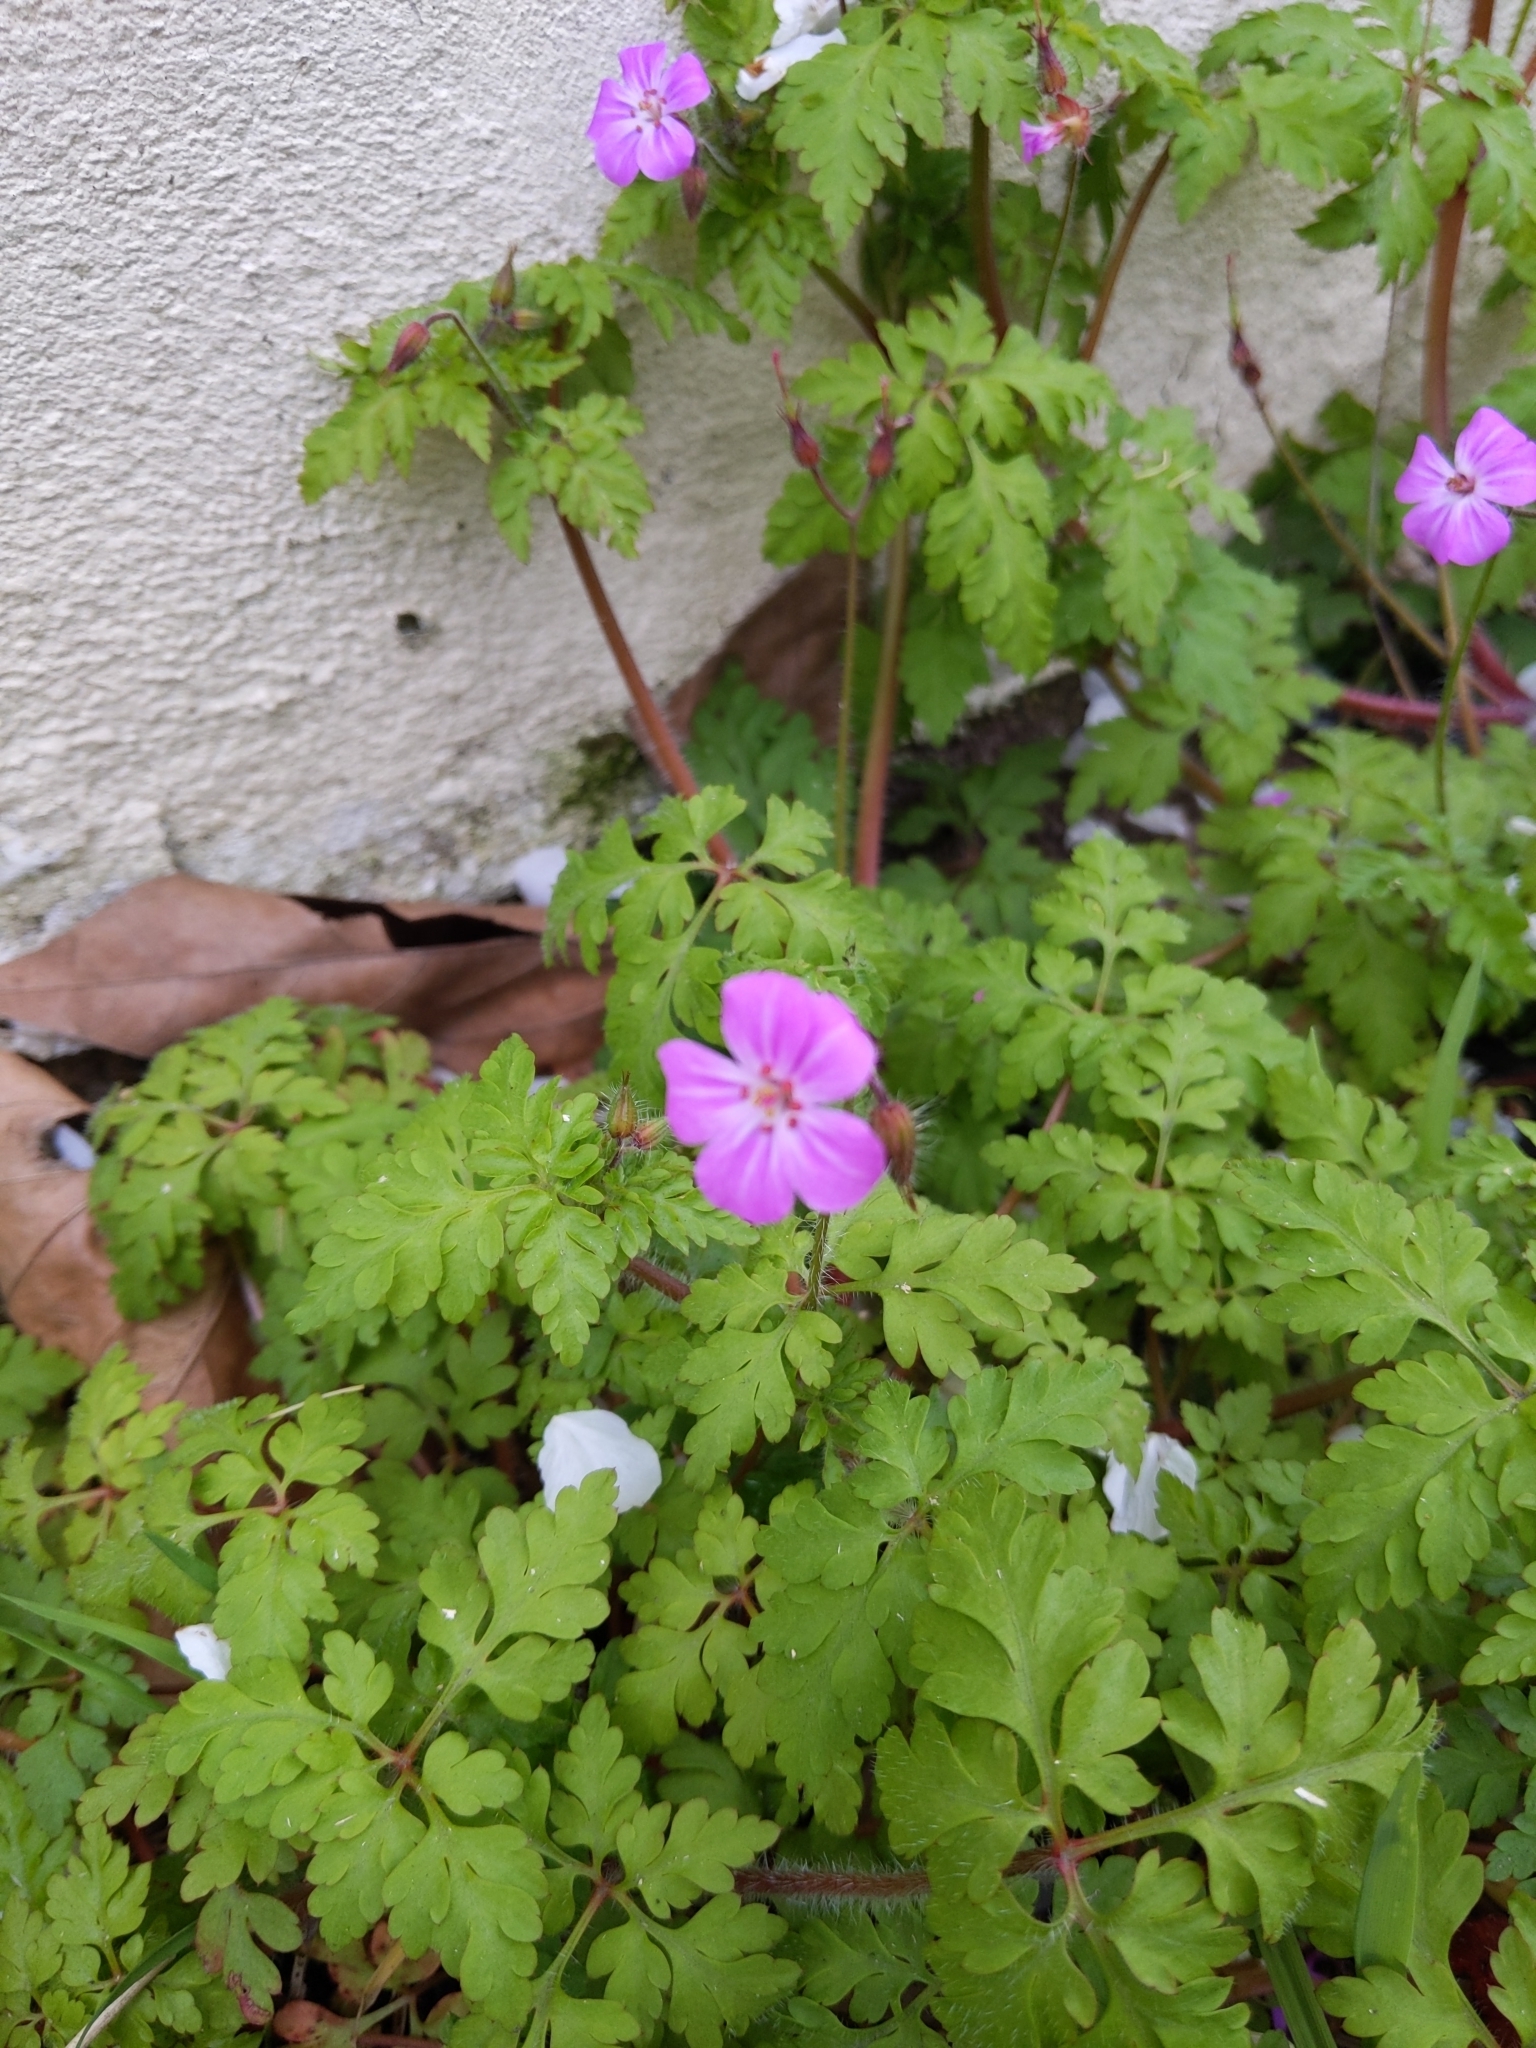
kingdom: Plantae
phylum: Tracheophyta
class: Magnoliopsida
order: Geraniales
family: Geraniaceae
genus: Geranium
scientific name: Geranium robertianum
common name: Herb-robert
